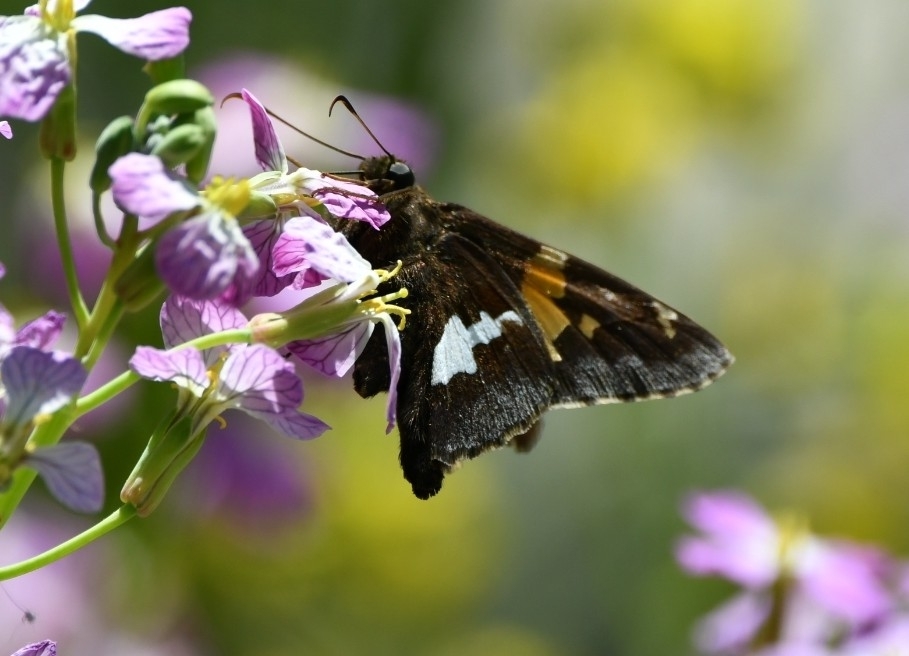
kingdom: Animalia
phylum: Arthropoda
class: Insecta
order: Lepidoptera
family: Hesperiidae
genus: Epargyreus
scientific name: Epargyreus clarus
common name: Silver-spotted skipper
